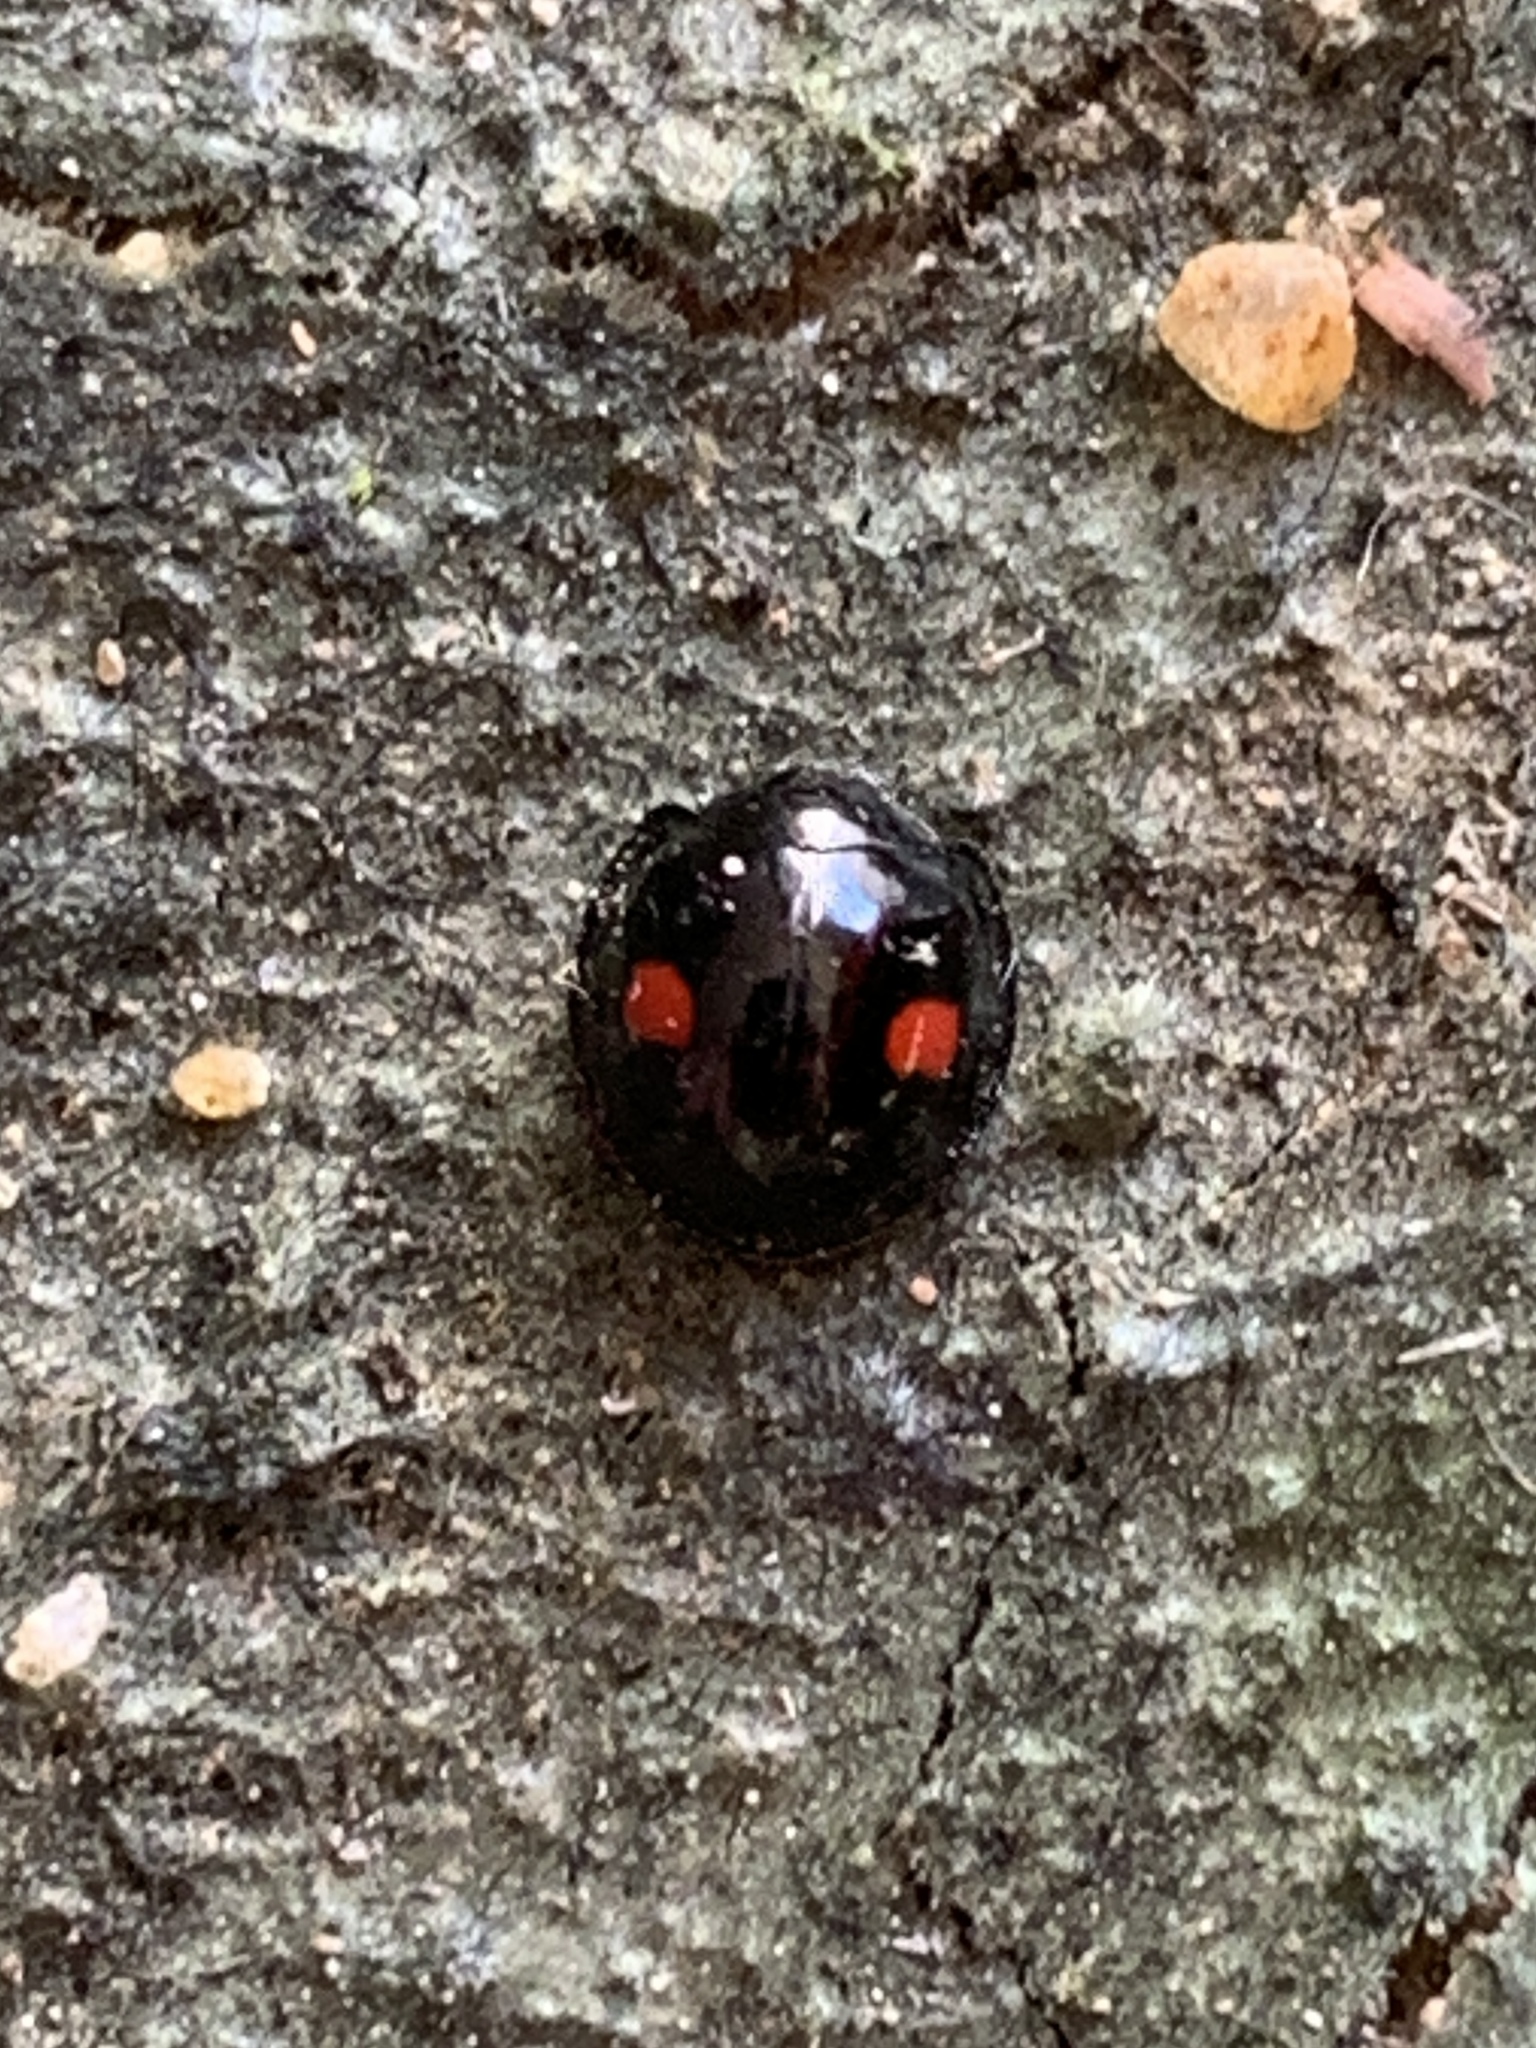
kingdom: Animalia
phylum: Arthropoda
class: Insecta
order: Coleoptera
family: Coccinellidae
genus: Chilocorus
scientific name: Chilocorus stigma
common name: Twicestabbed lady beetle
